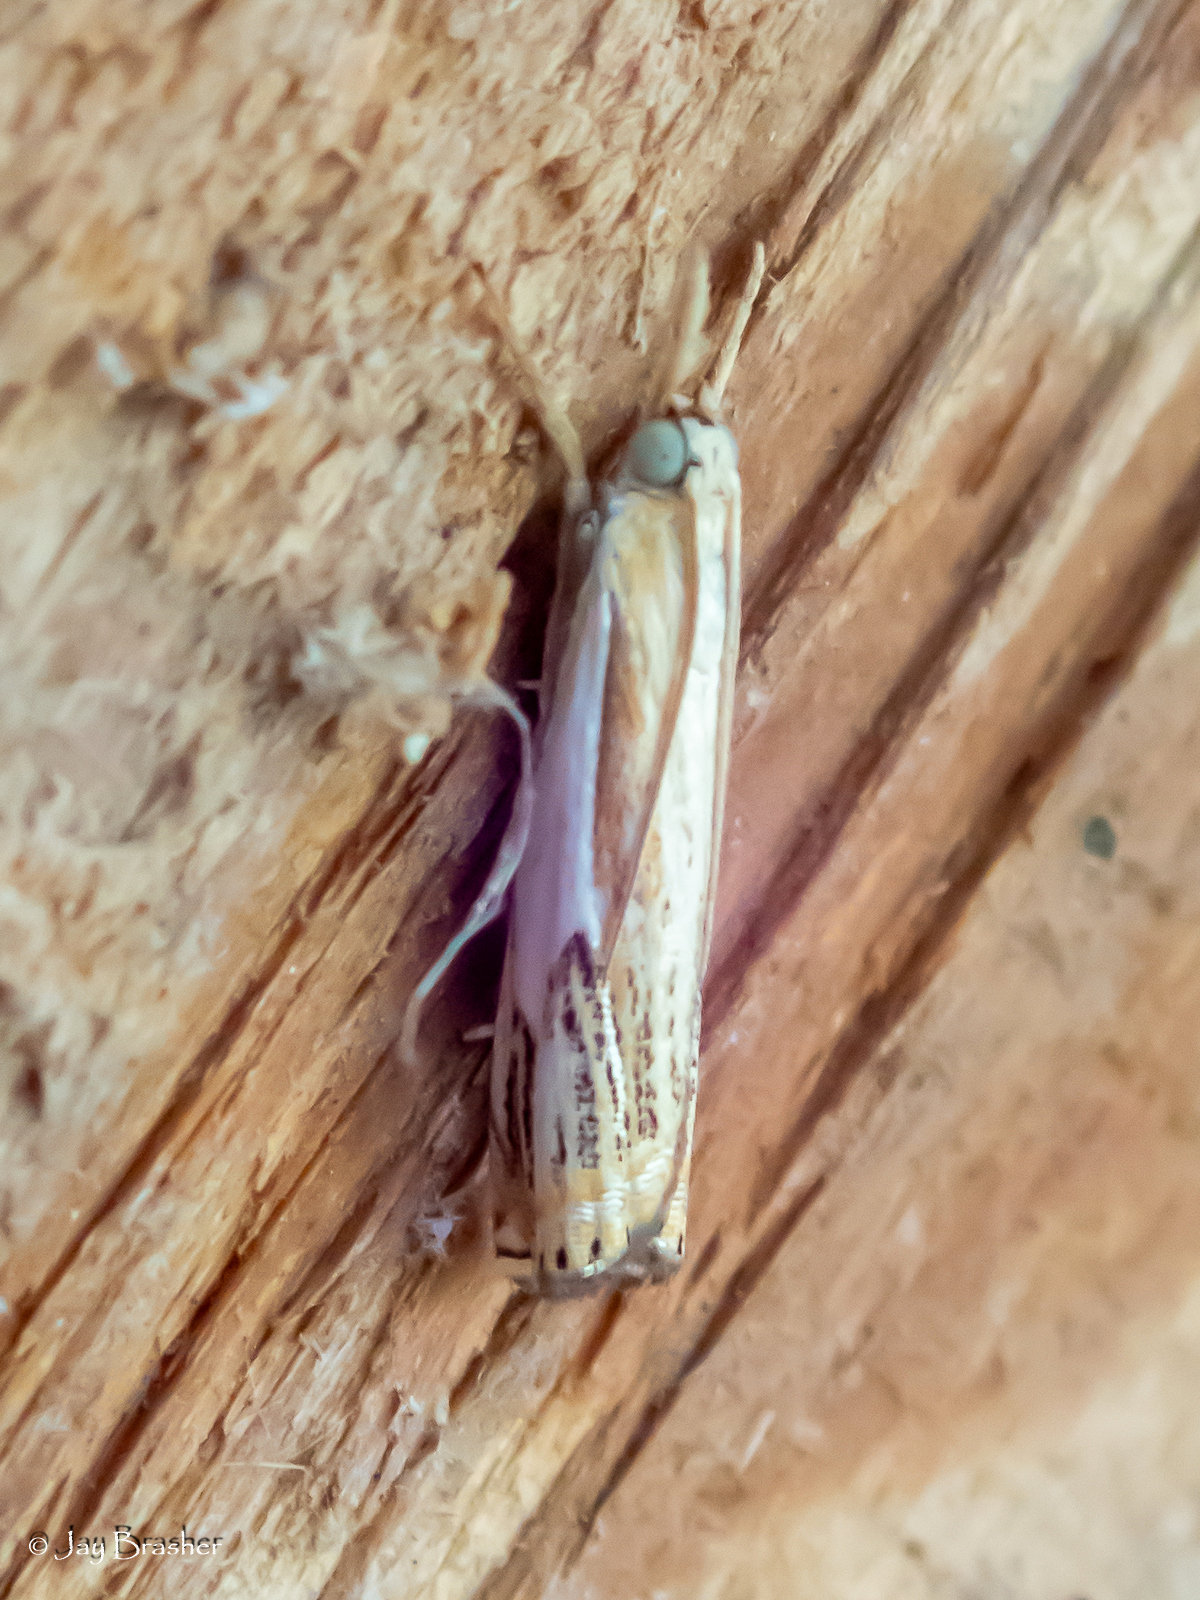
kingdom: Animalia
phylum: Arthropoda
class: Insecta
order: Lepidoptera
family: Crambidae
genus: Crambus
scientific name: Crambus agitatellus
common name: Double-banded grass-veneer
